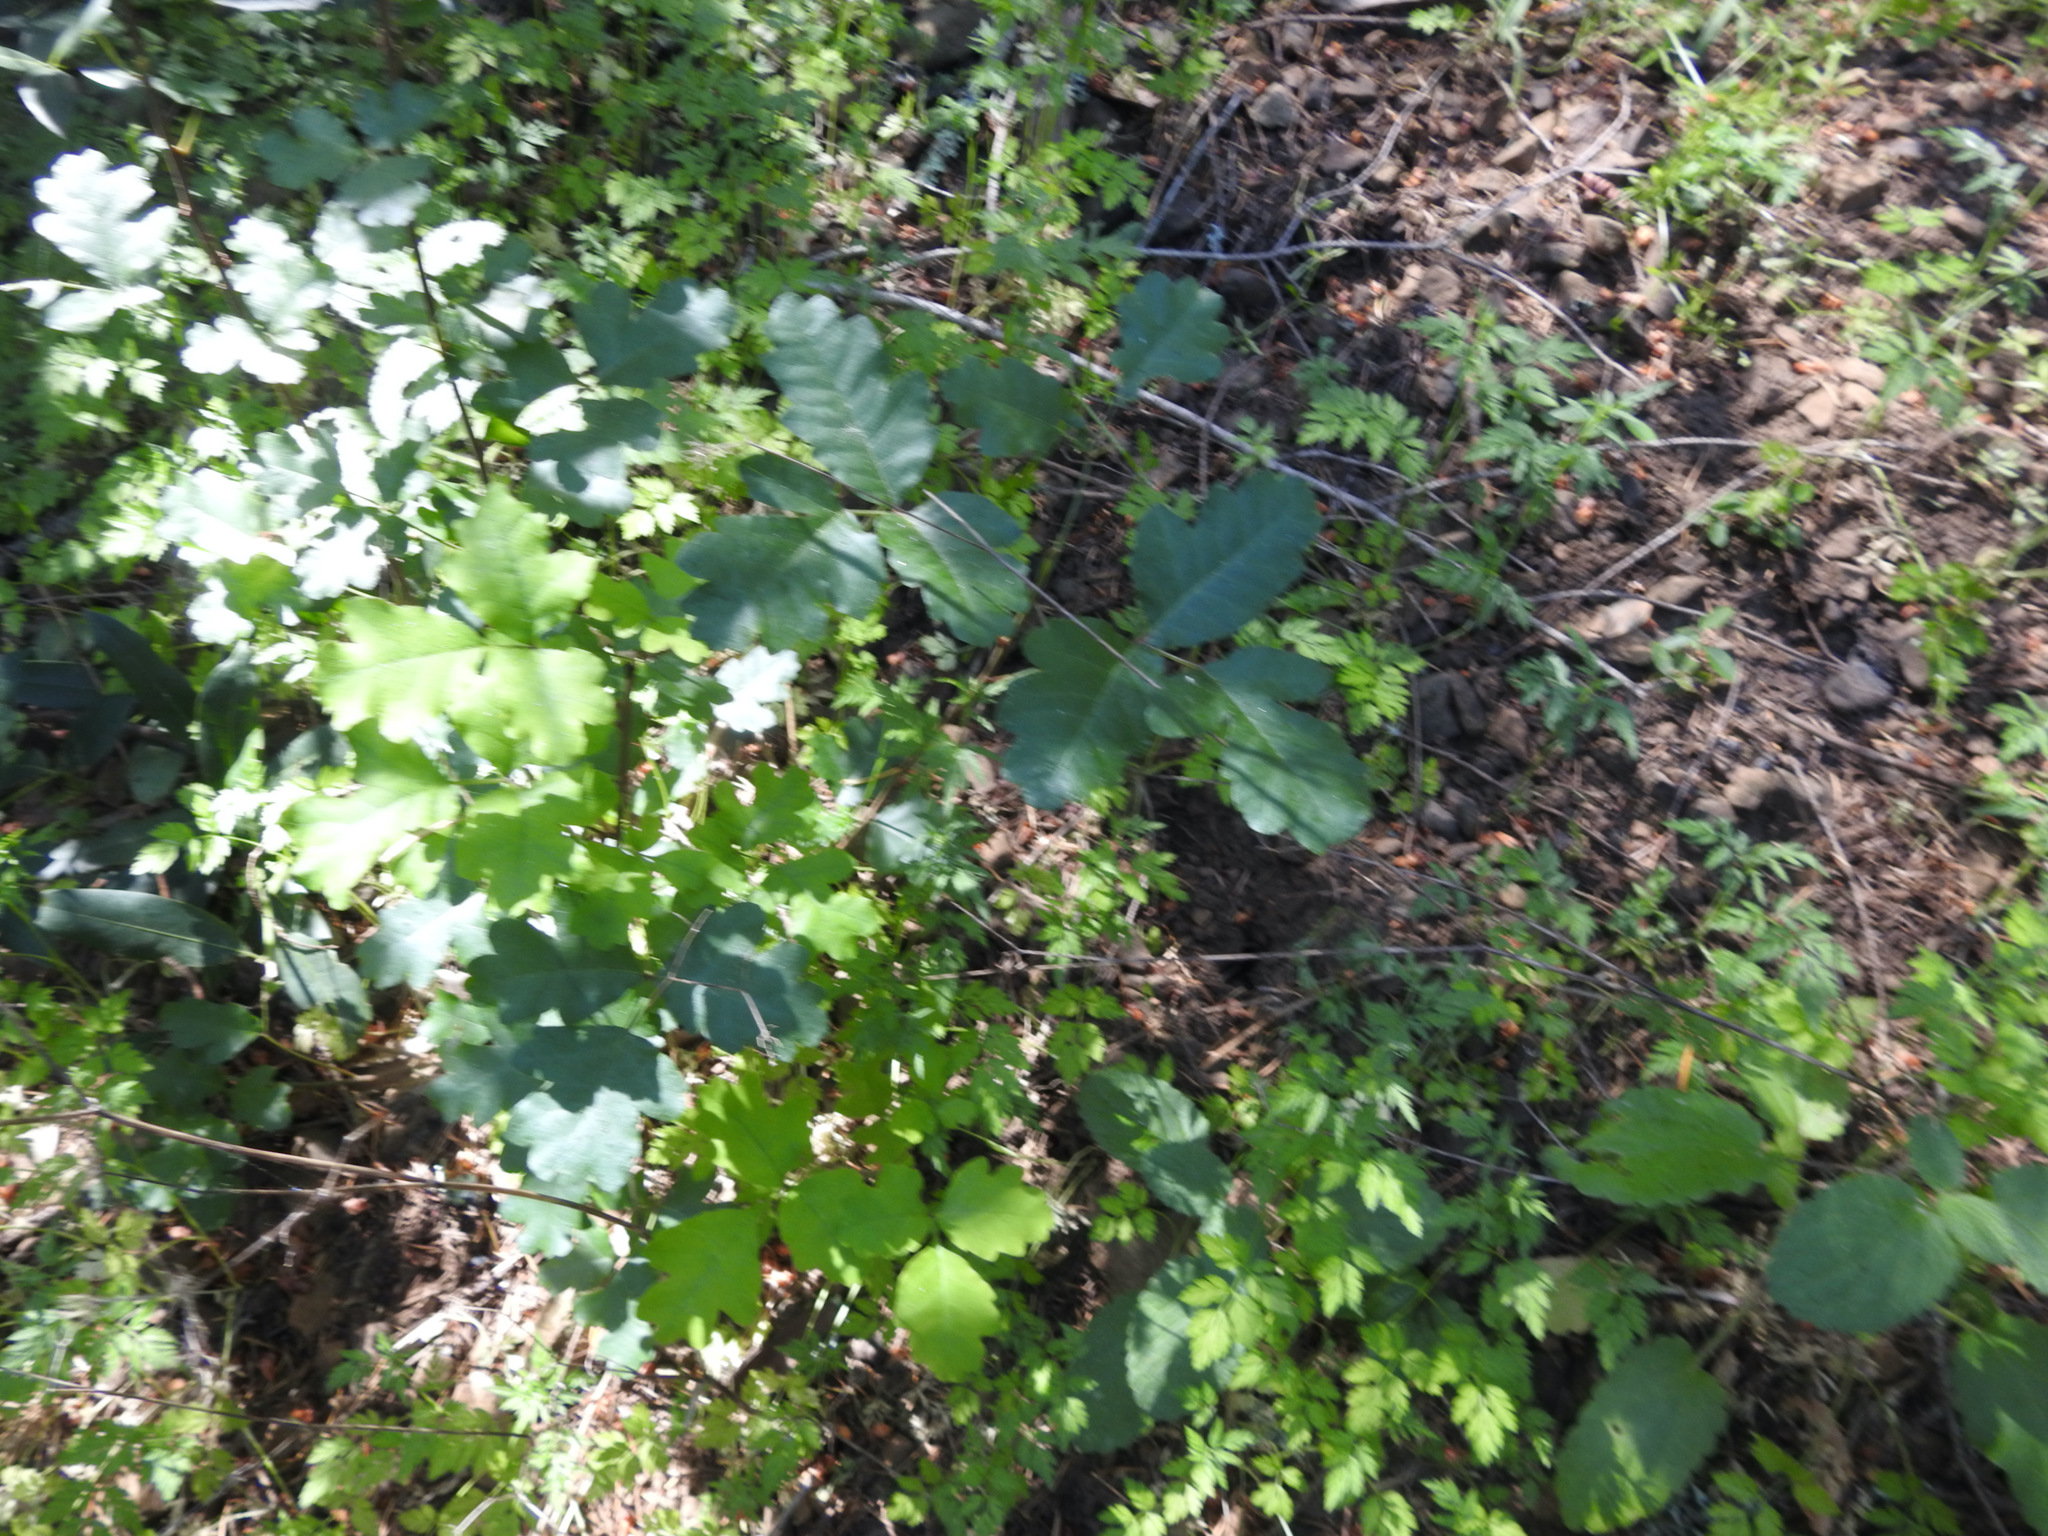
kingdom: Plantae
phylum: Tracheophyta
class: Magnoliopsida
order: Sapindales
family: Anacardiaceae
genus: Toxicodendron
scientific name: Toxicodendron diversilobum
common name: Pacific poison-oak
